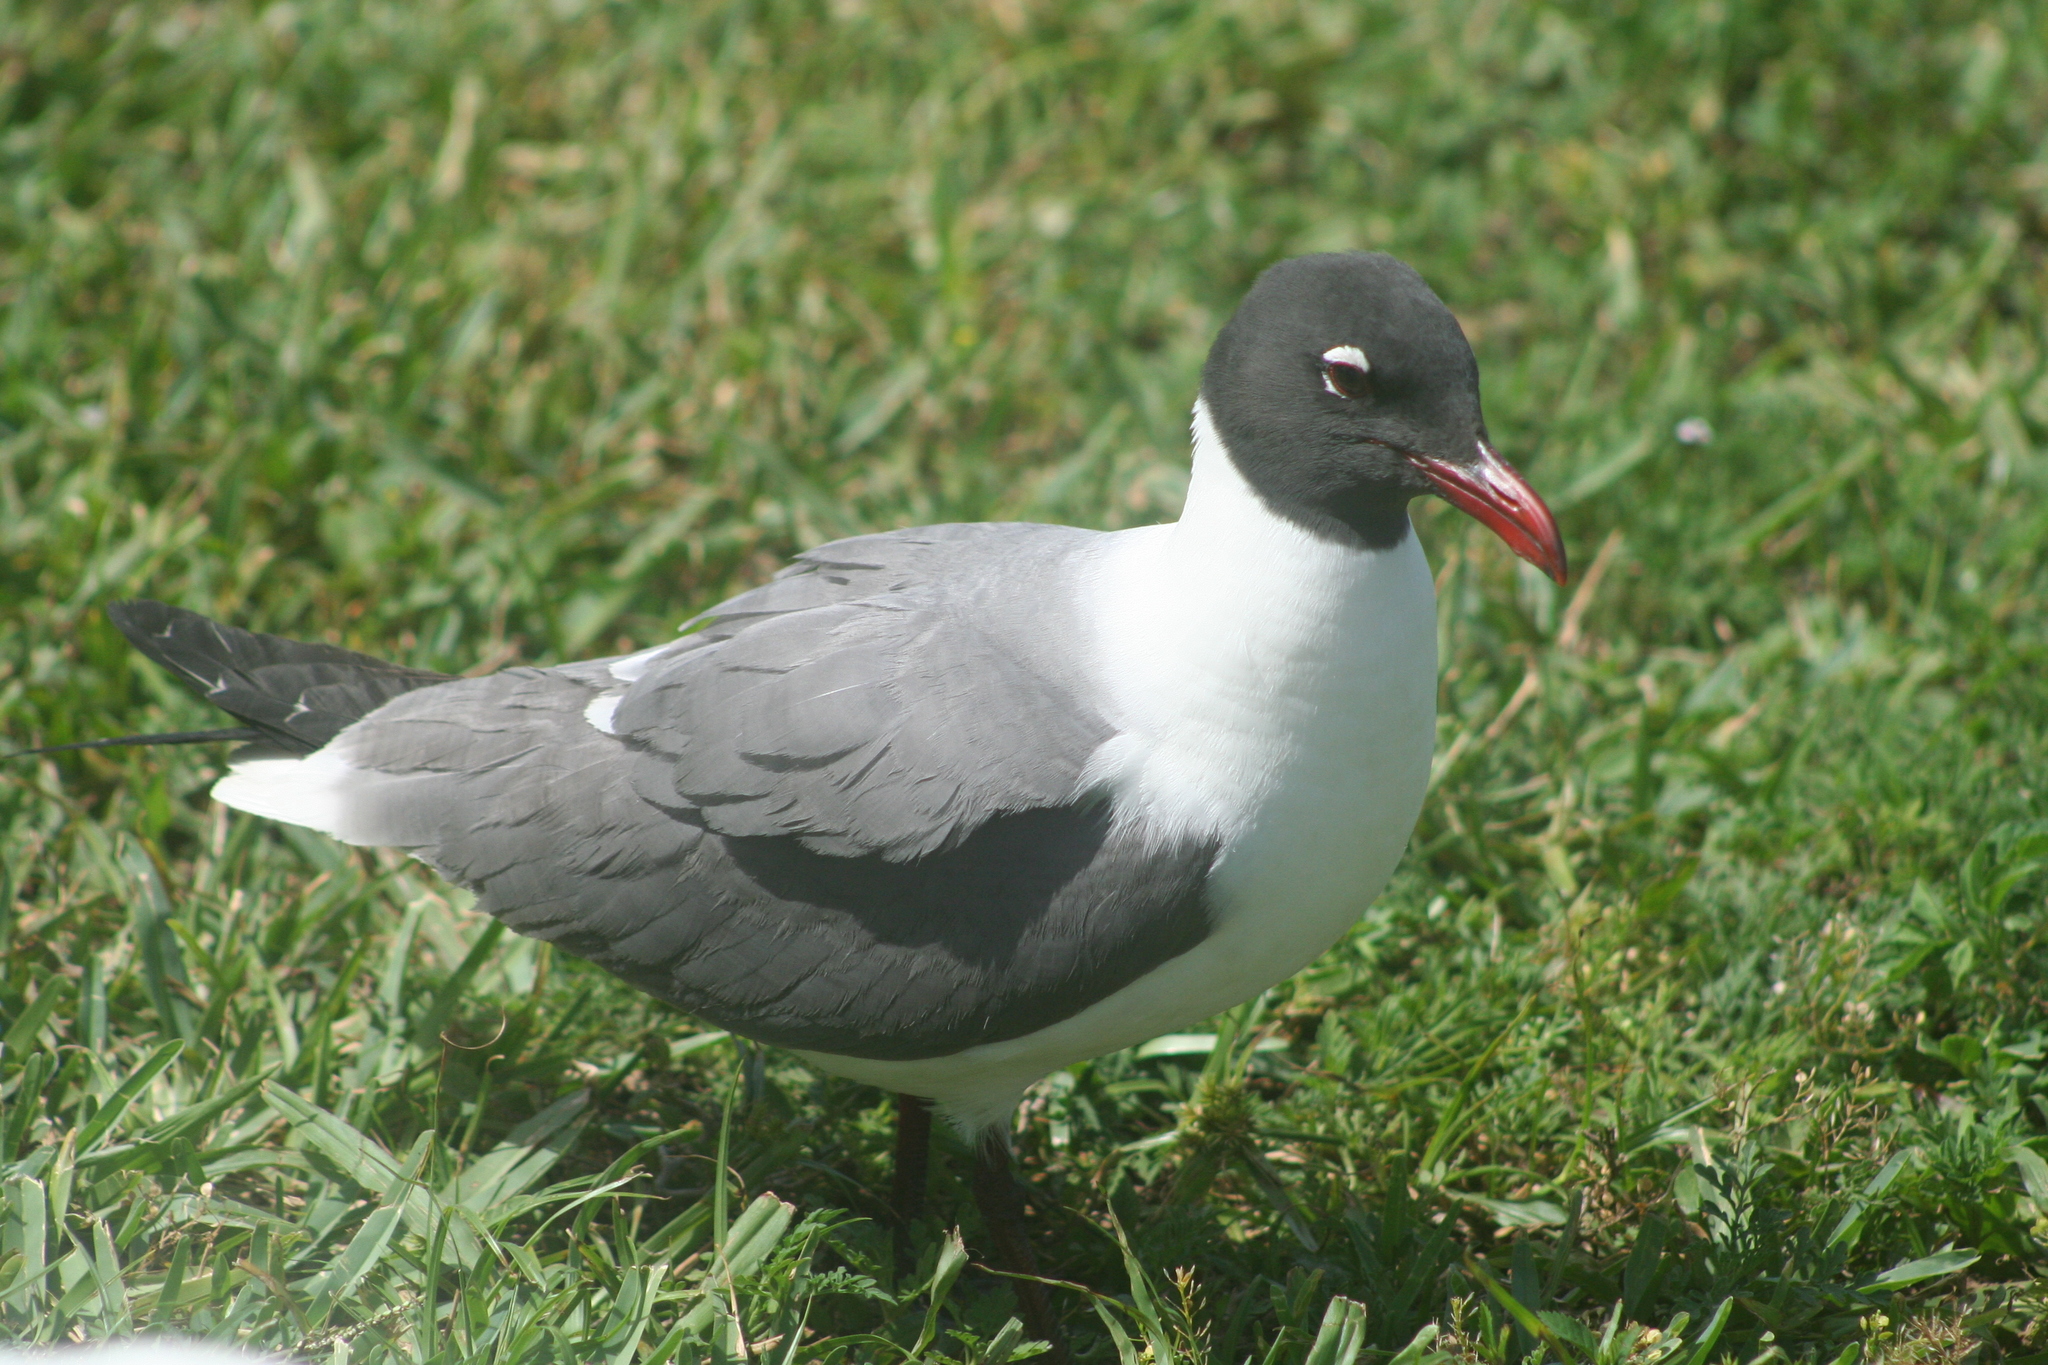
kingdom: Animalia
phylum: Chordata
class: Aves
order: Charadriiformes
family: Laridae
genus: Leucophaeus
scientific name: Leucophaeus atricilla
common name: Laughing gull
